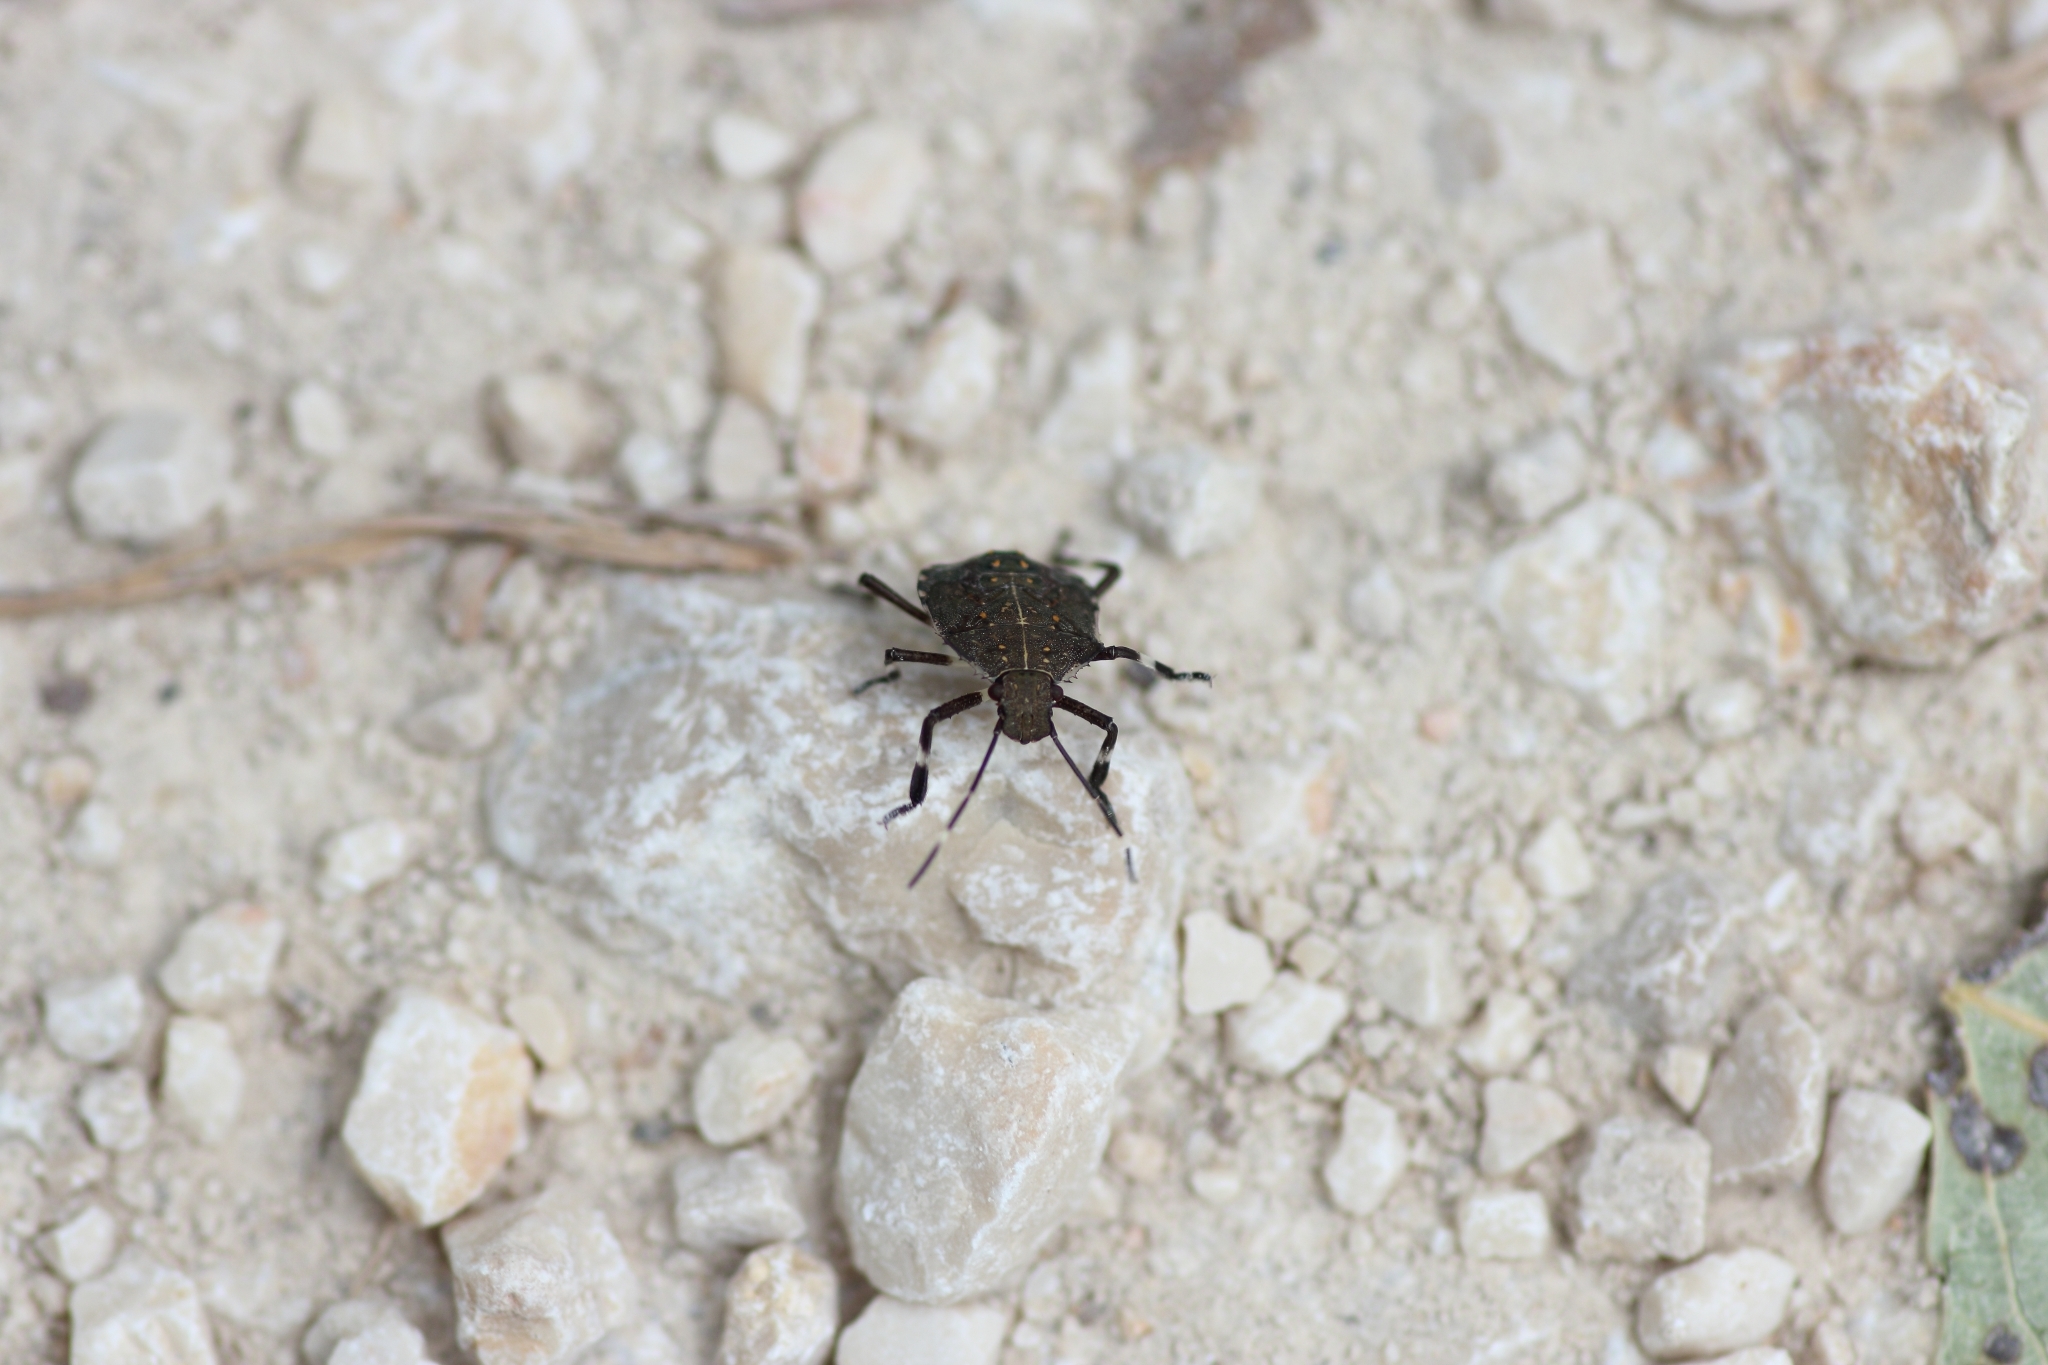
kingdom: Animalia
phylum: Arthropoda
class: Insecta
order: Hemiptera
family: Pentatomidae
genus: Halyomorpha
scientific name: Halyomorpha halys
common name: Brown marmorated stink bug
